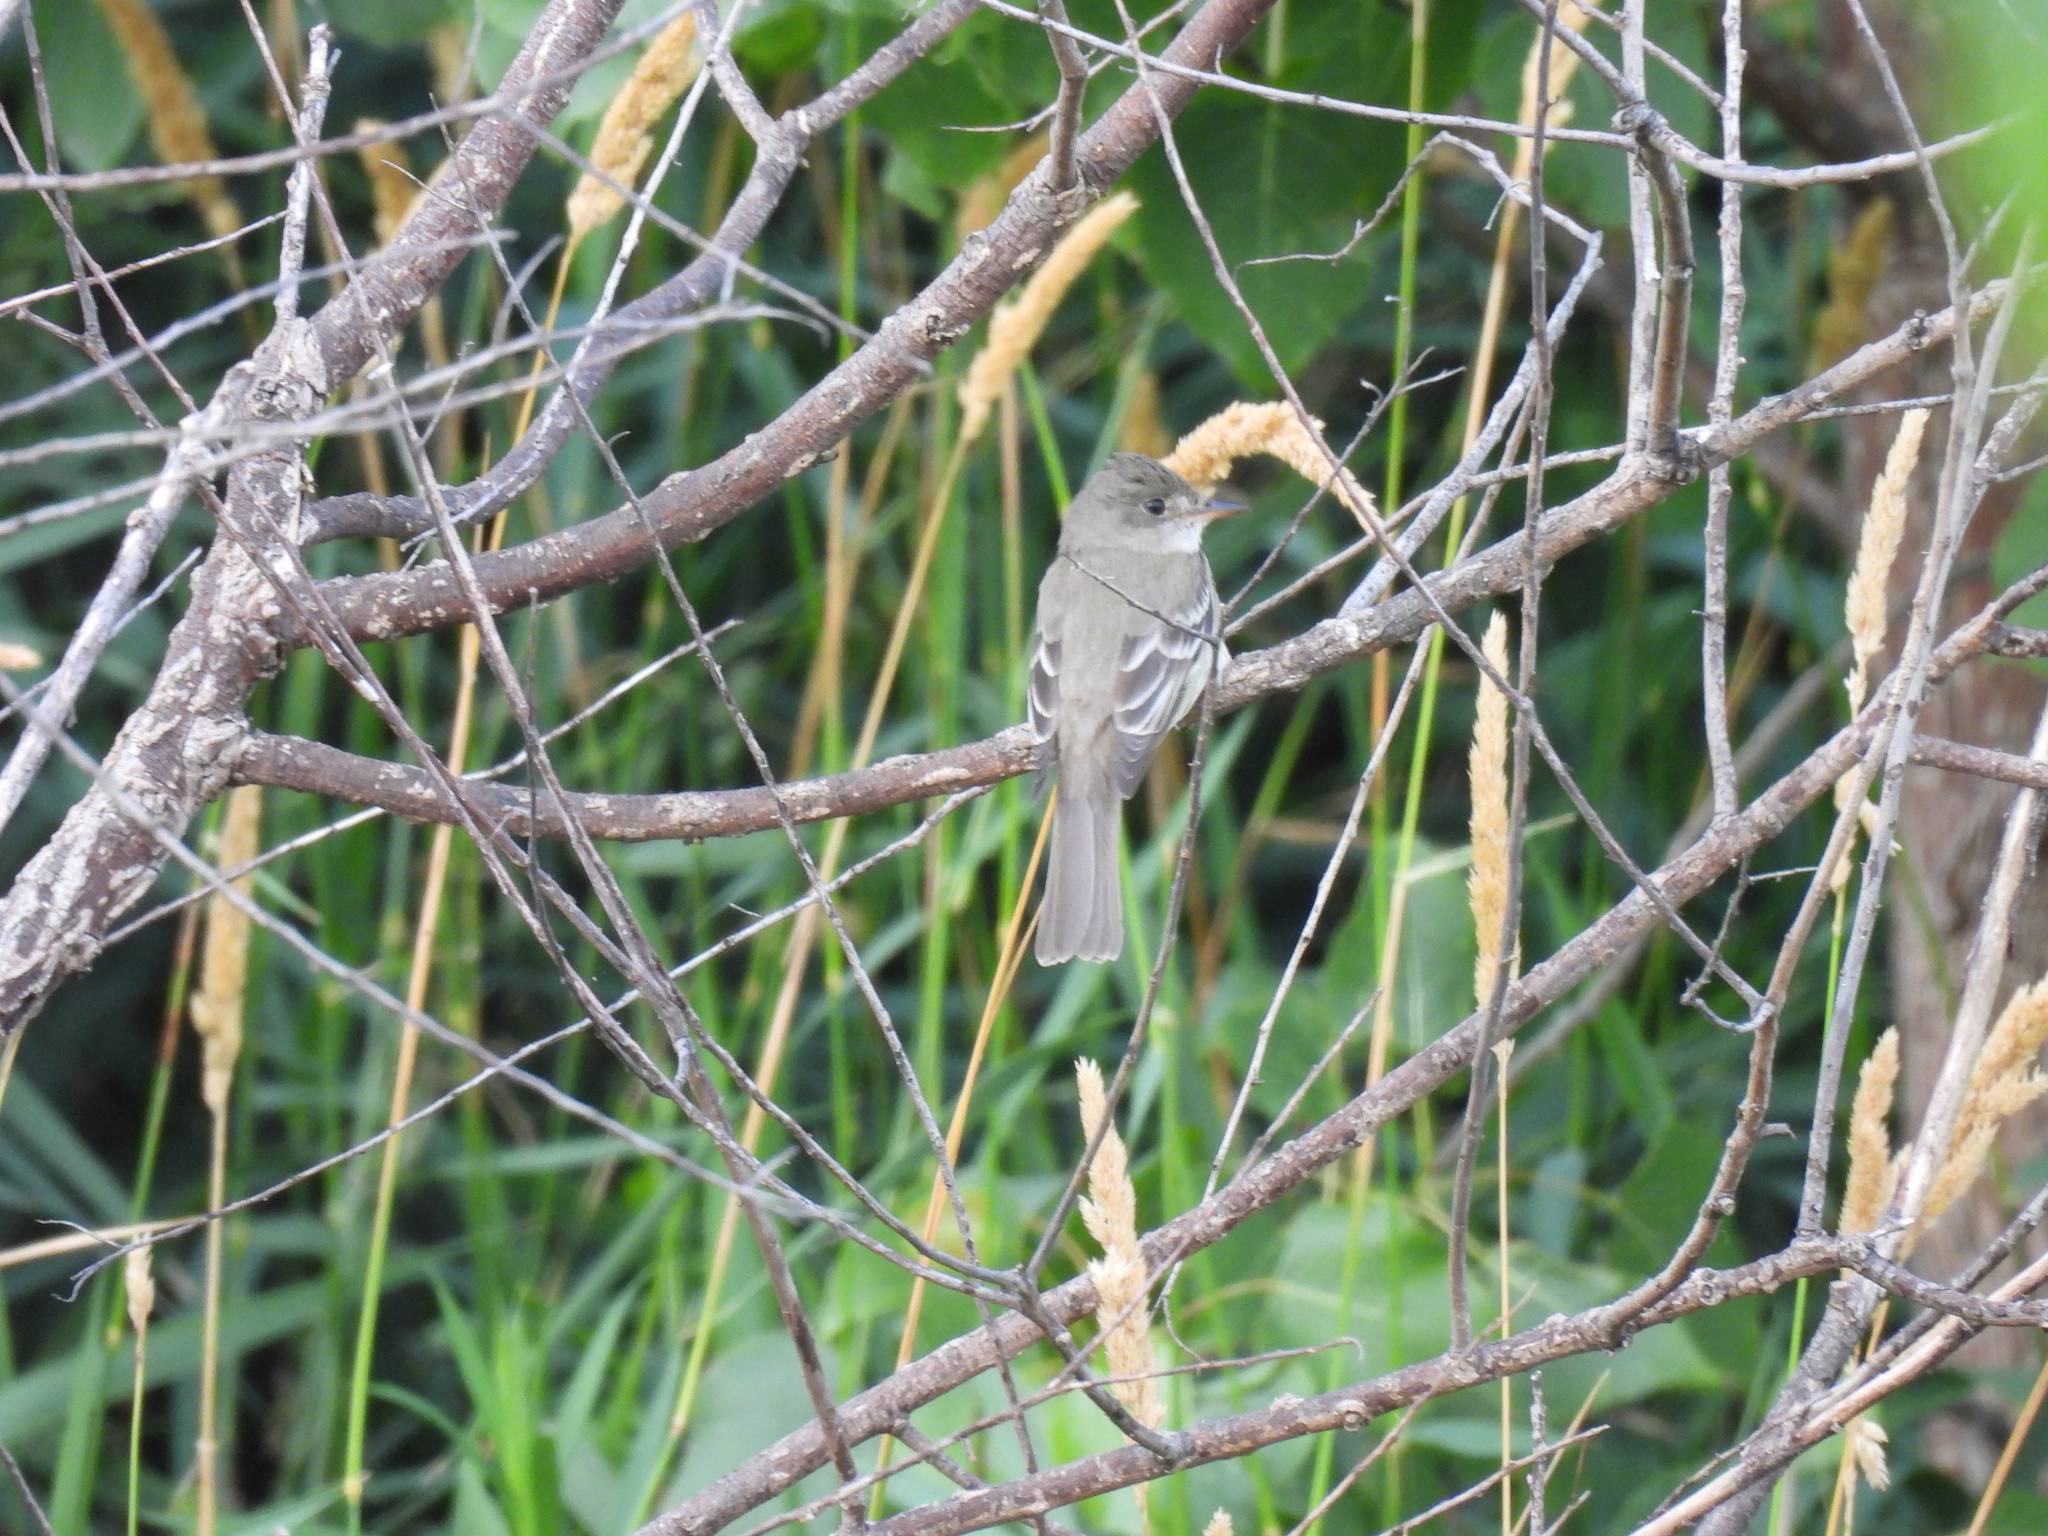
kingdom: Animalia
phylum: Chordata
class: Aves
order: Passeriformes
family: Tyrannidae
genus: Contopus
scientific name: Contopus virens
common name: Eastern wood-pewee
